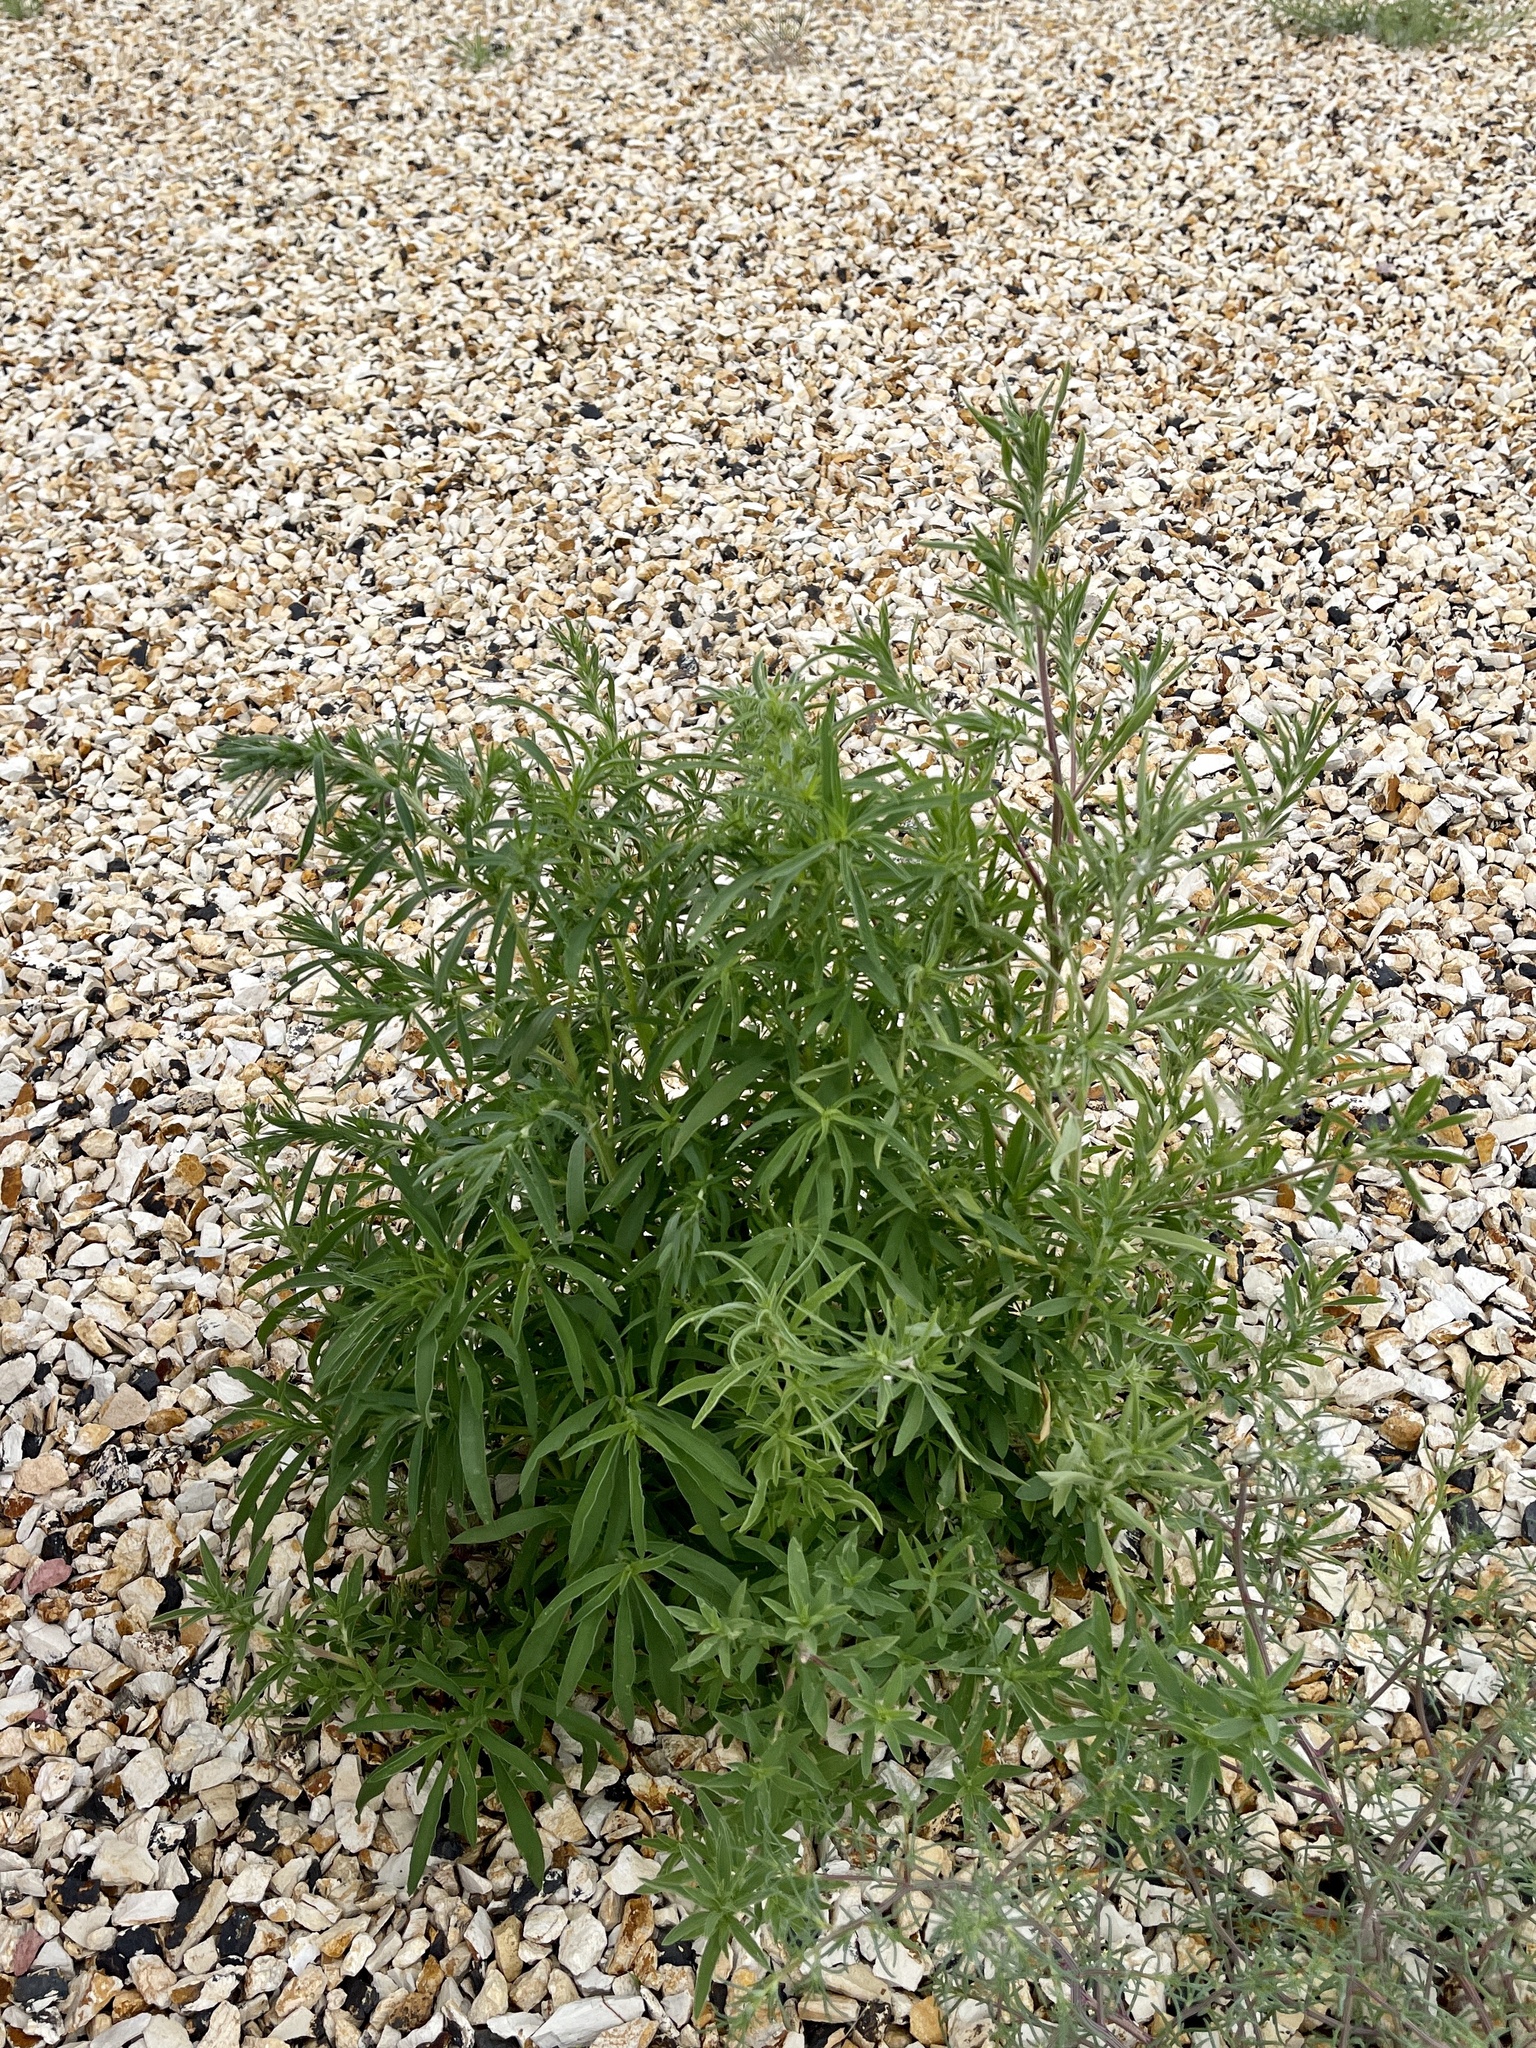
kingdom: Plantae
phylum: Tracheophyta
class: Magnoliopsida
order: Caryophyllales
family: Amaranthaceae
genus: Bassia
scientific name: Bassia scoparia
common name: Belvedere
